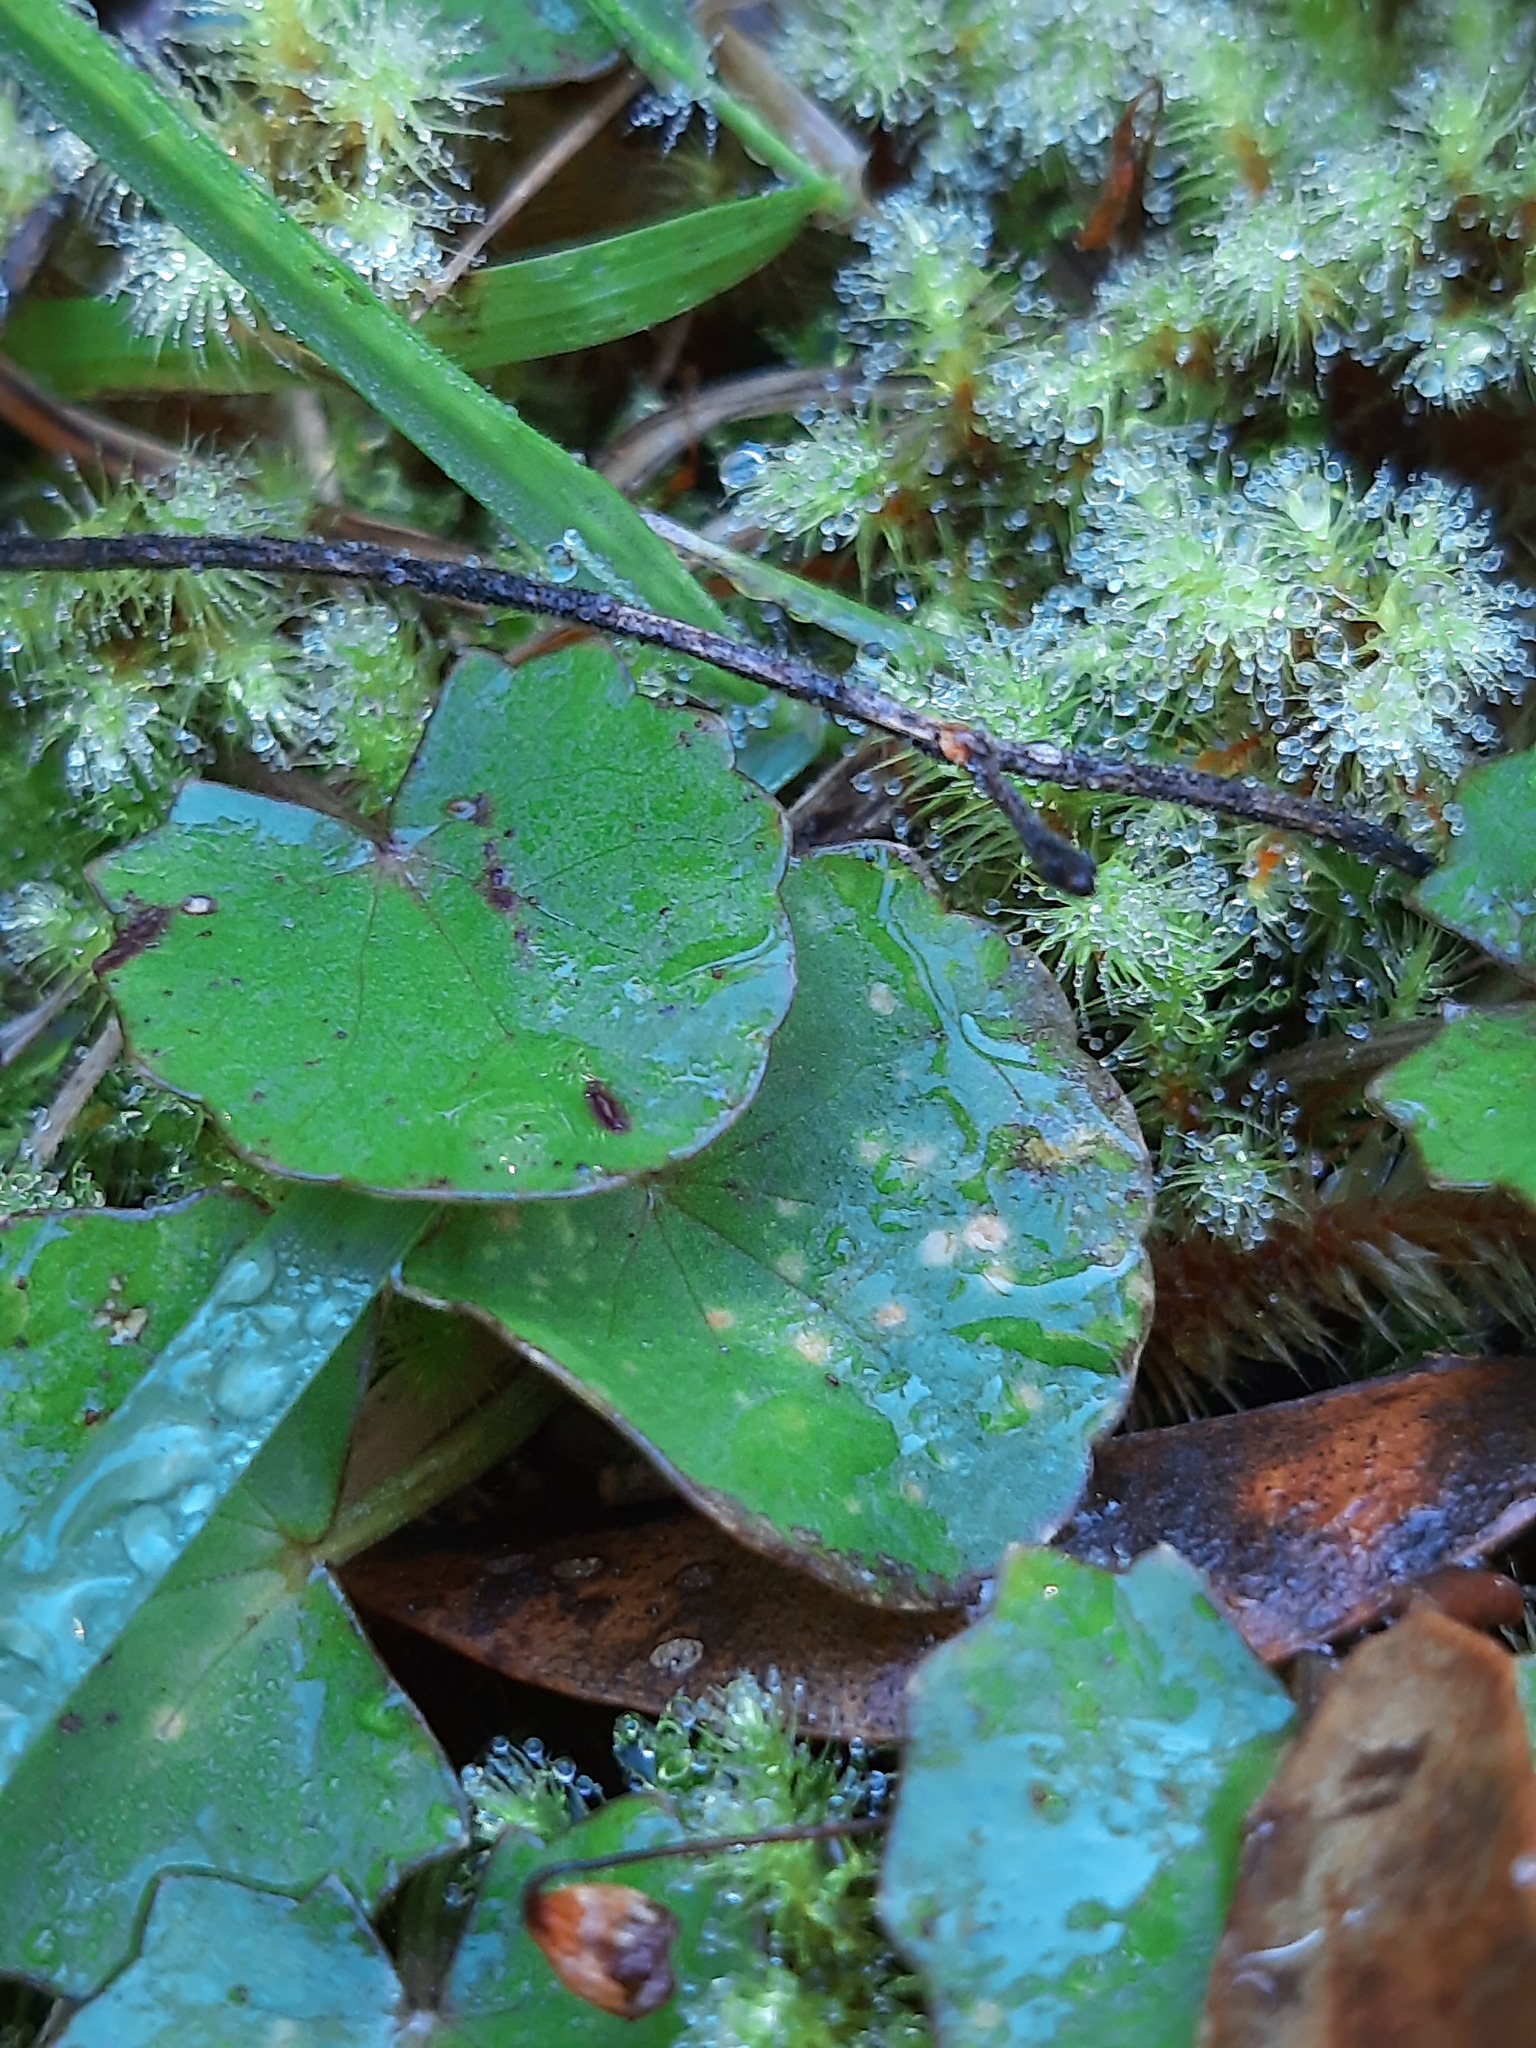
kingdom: Plantae
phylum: Tracheophyta
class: Magnoliopsida
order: Apiales
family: Apiaceae
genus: Centella
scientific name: Centella uniflora
